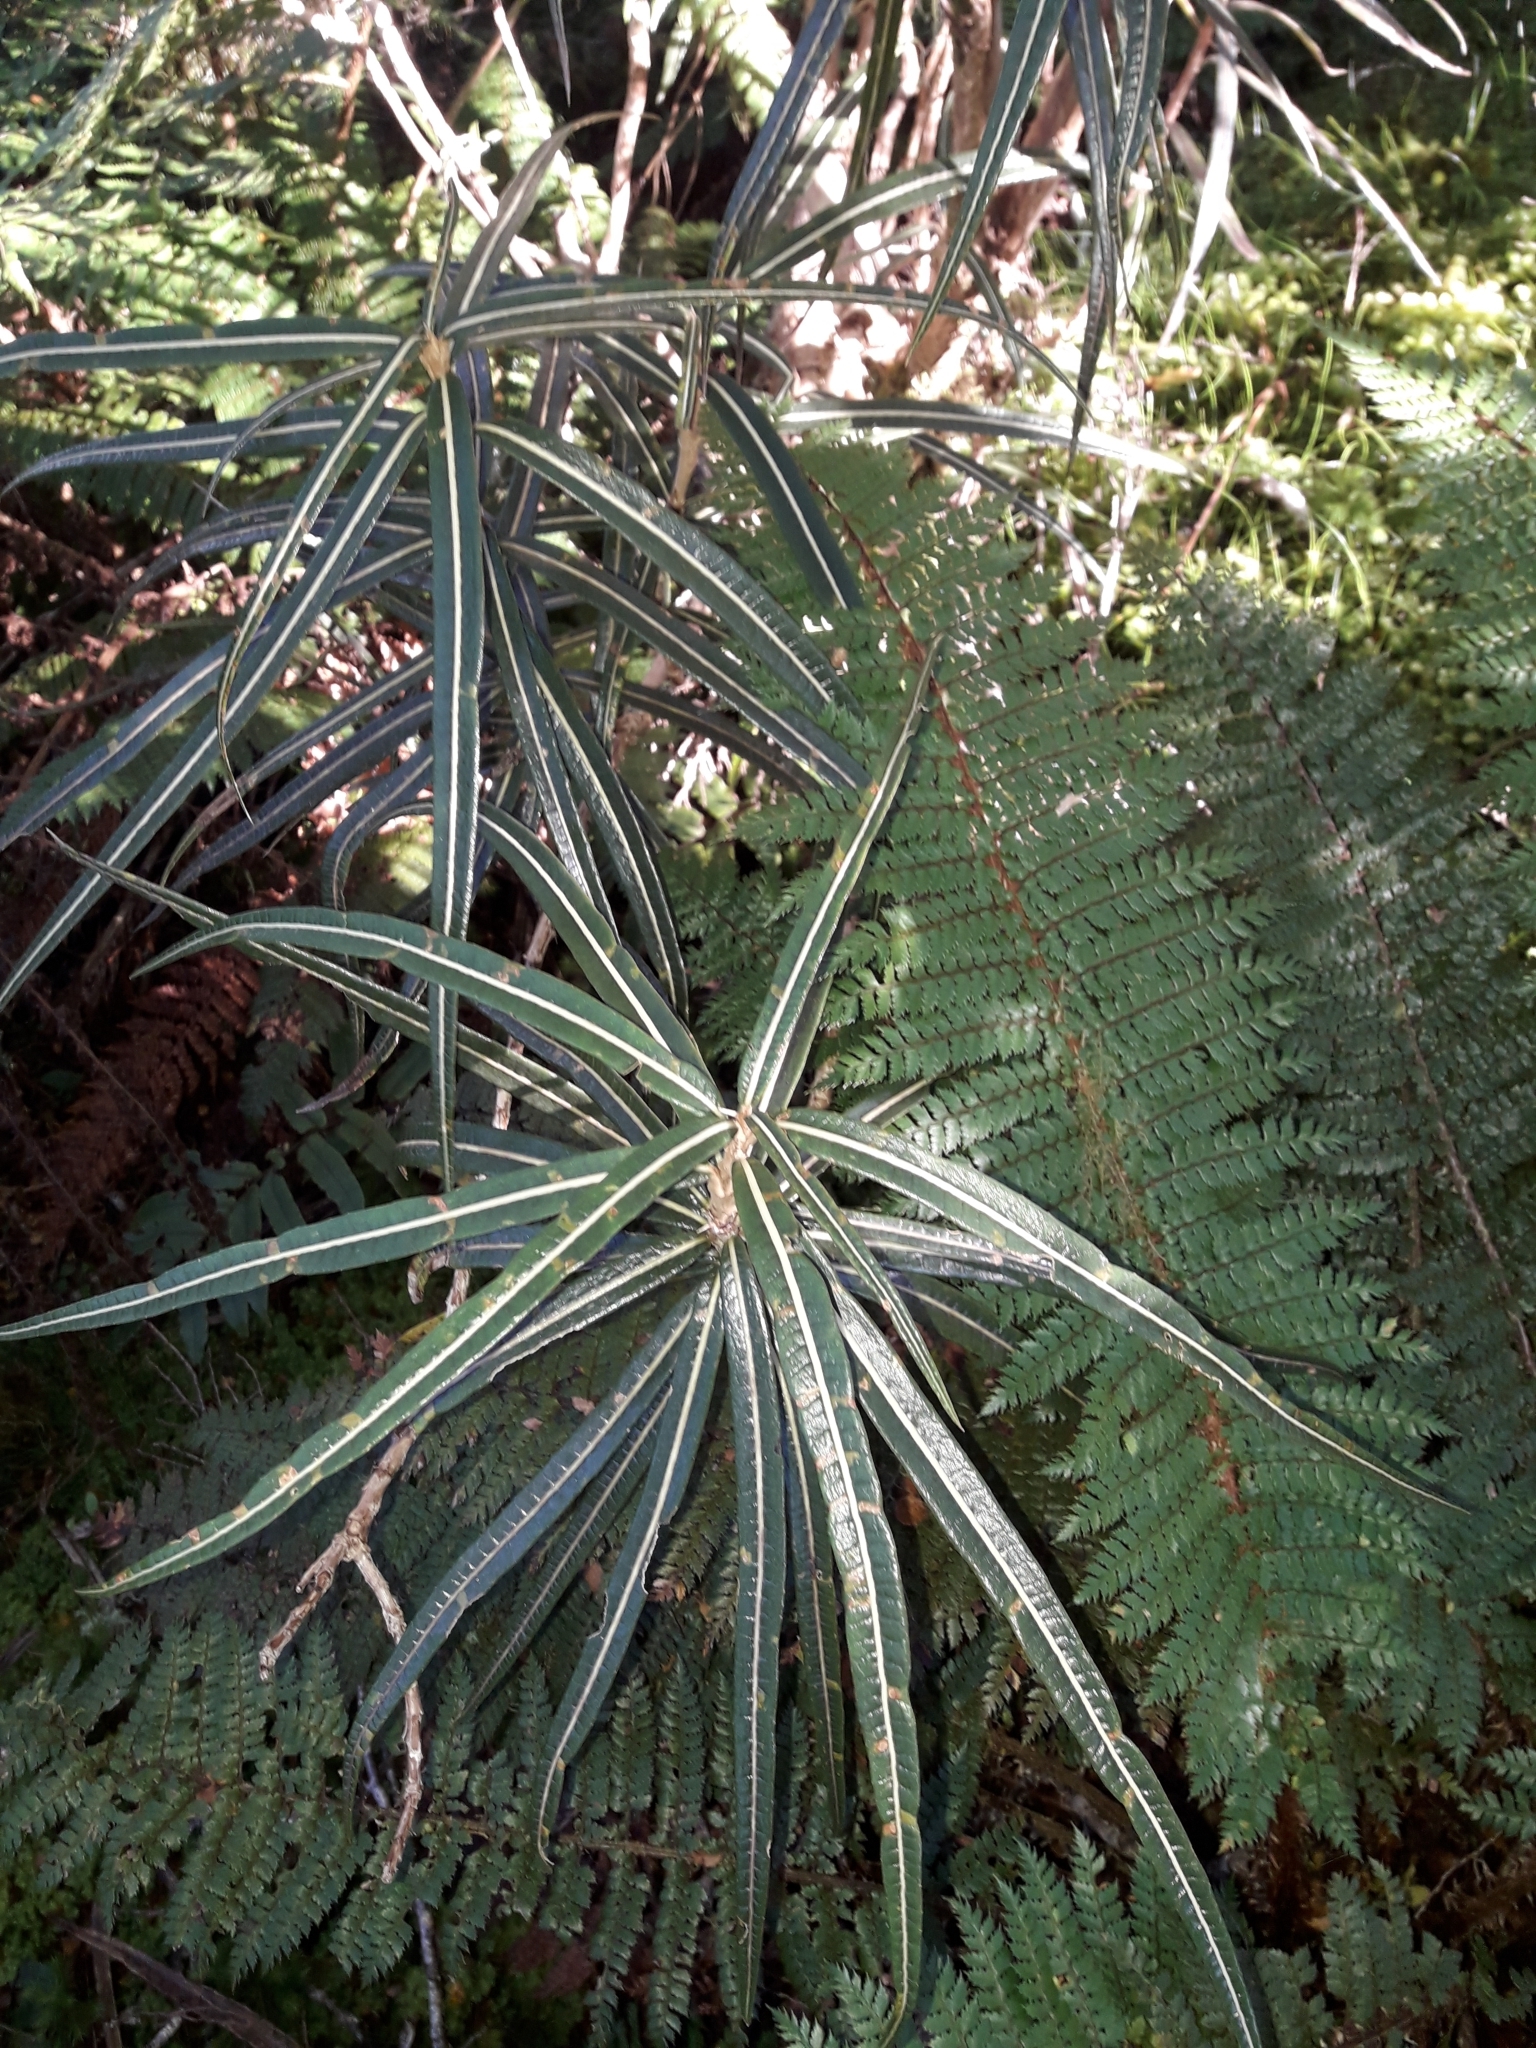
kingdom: Plantae
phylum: Tracheophyta
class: Magnoliopsida
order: Asterales
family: Asteraceae
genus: Olearia
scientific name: Olearia lacunosa
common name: Lancewood tree daisy
